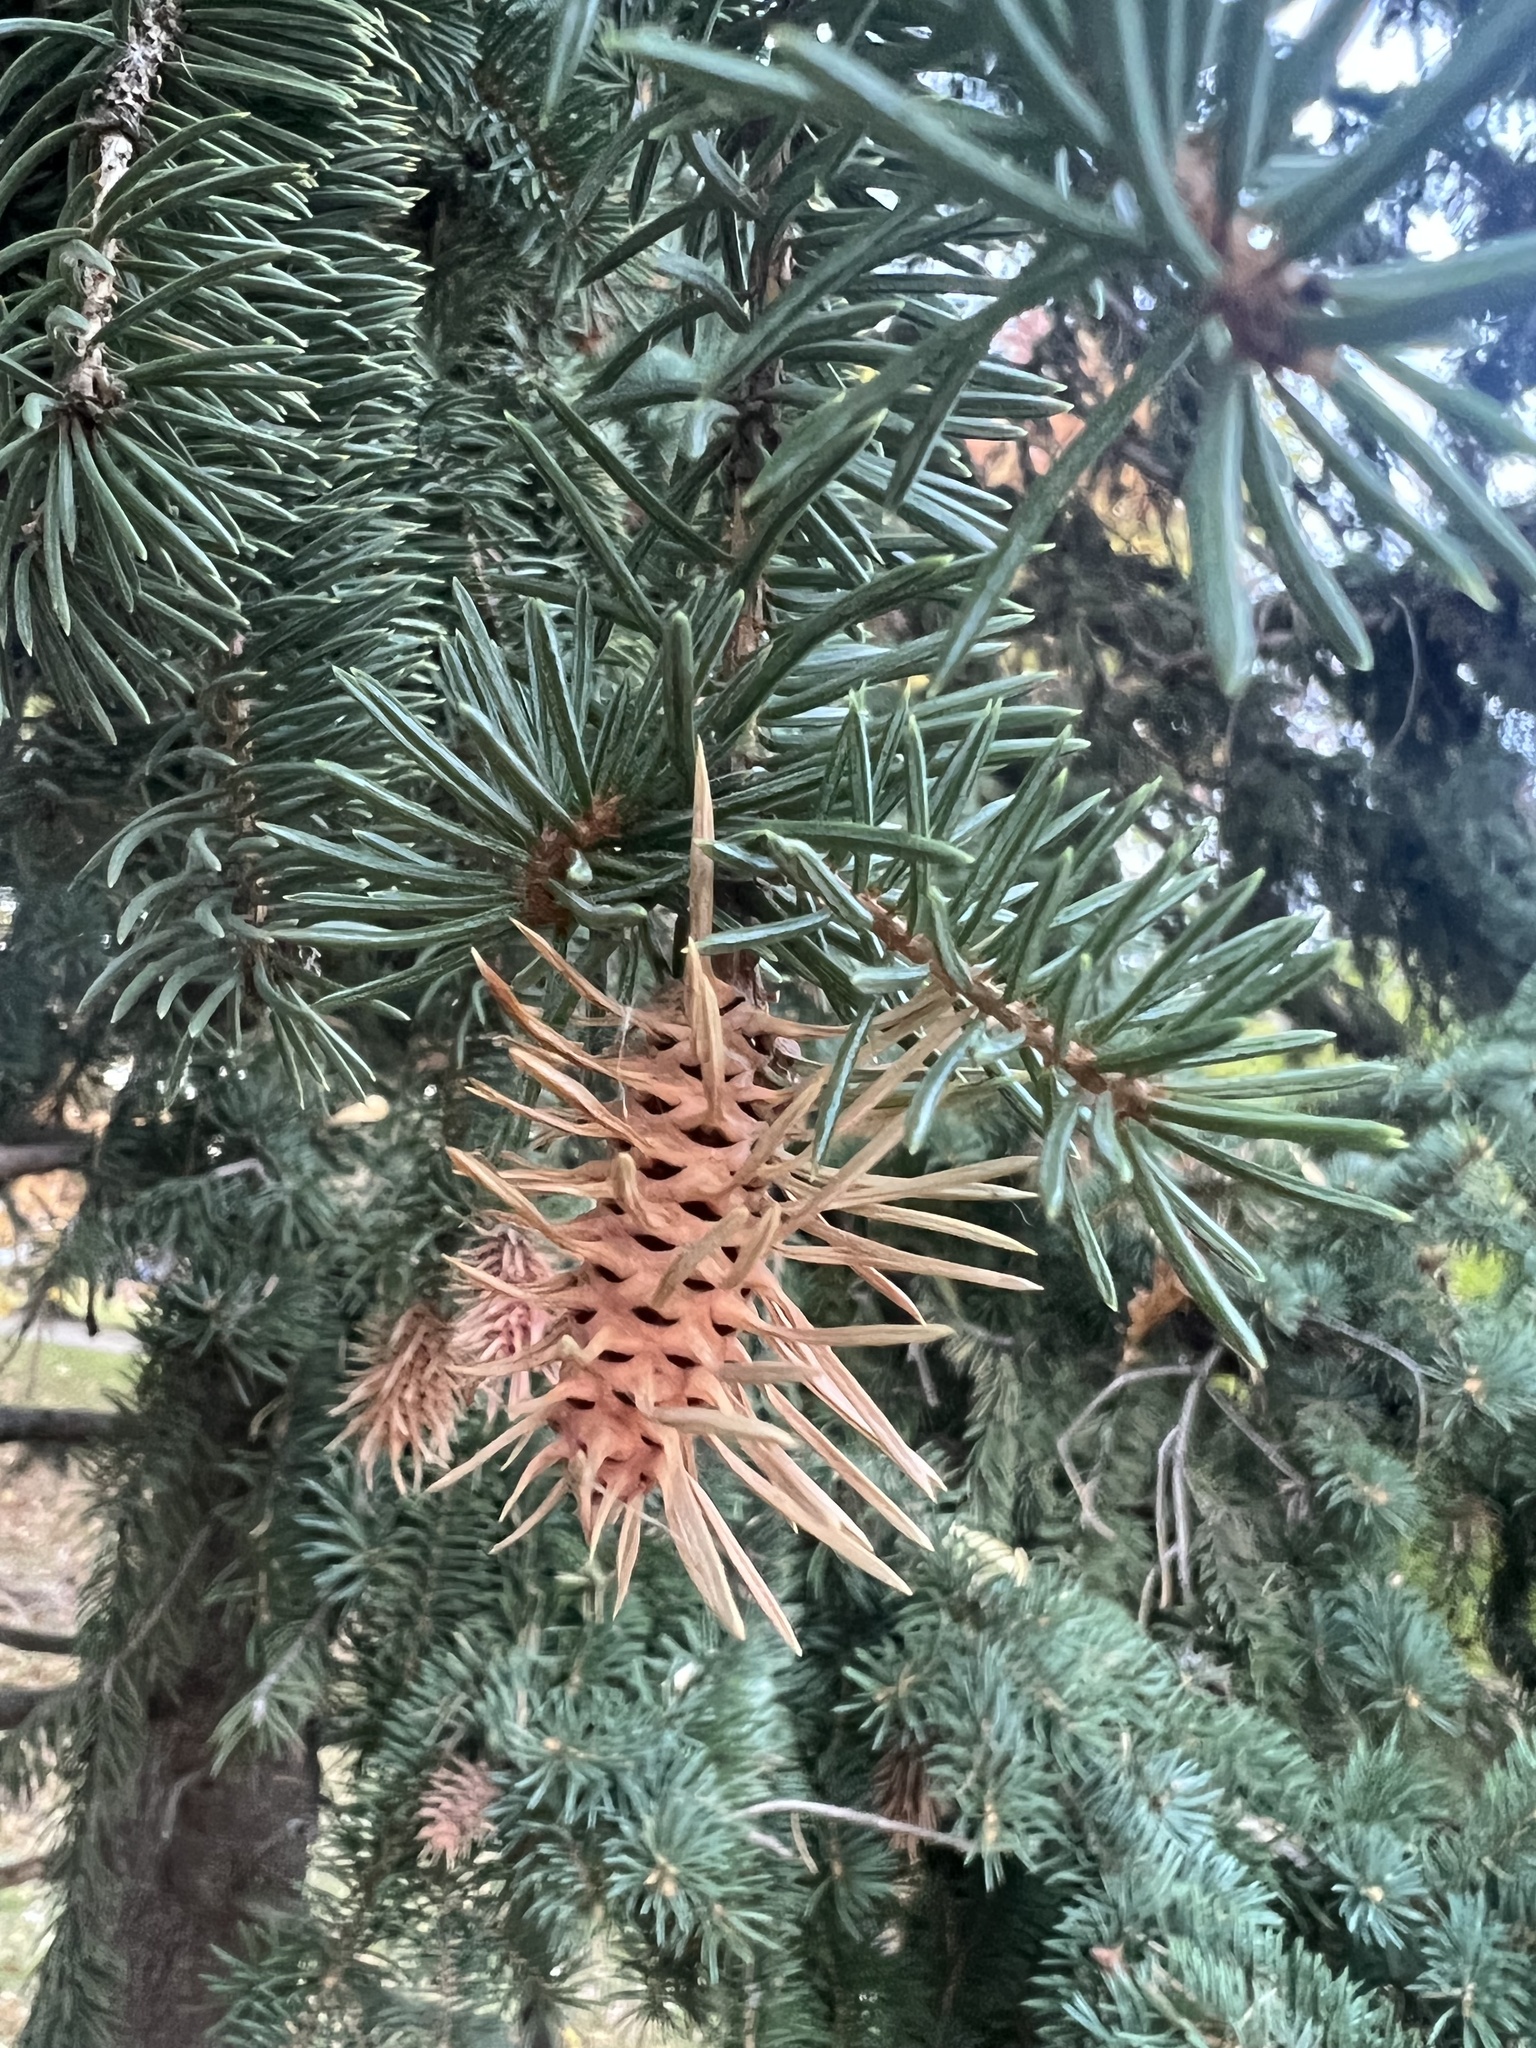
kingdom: Animalia
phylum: Arthropoda
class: Insecta
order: Hemiptera
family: Adelgidae
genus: Adelges
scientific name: Adelges cooleyi
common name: Cooley spruce gall adelgid
